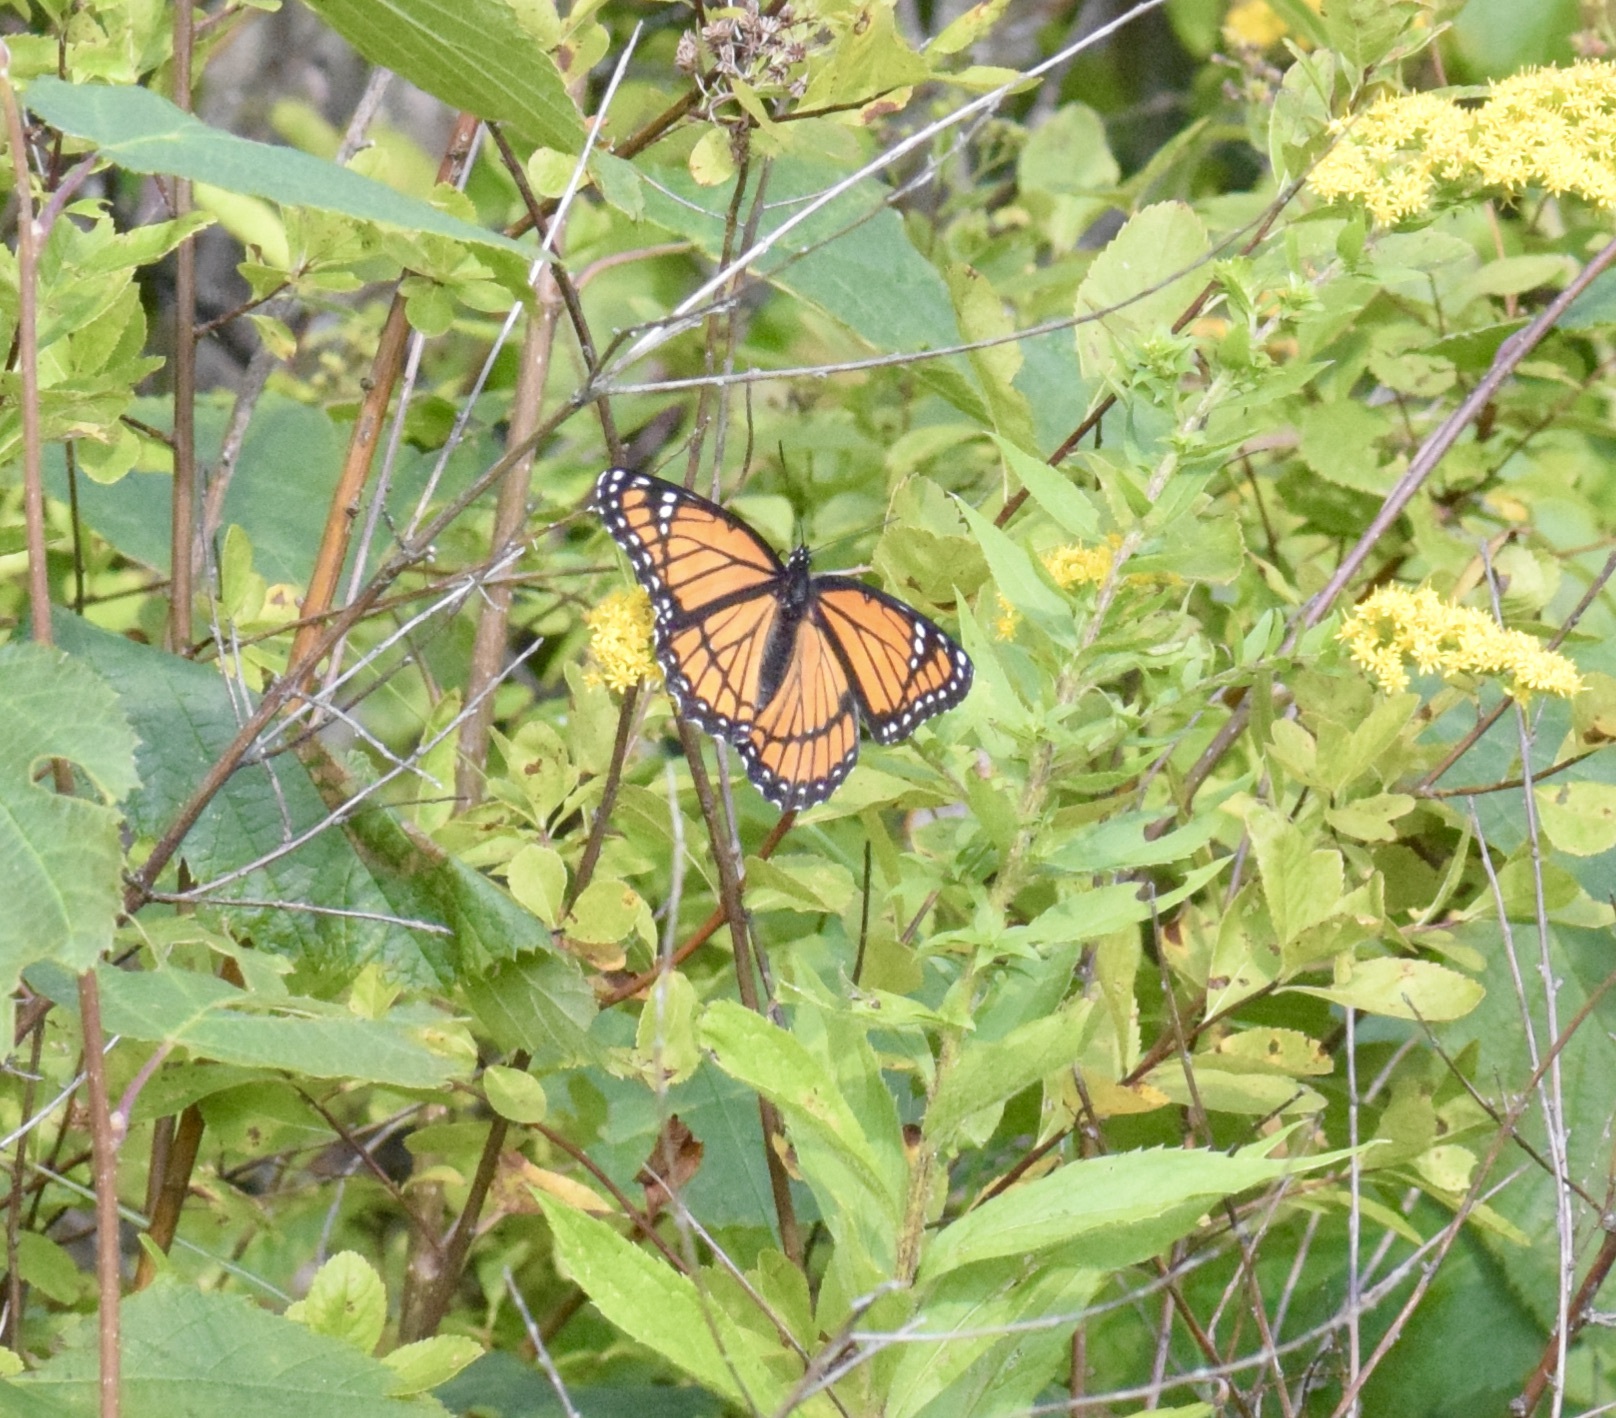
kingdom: Animalia
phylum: Arthropoda
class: Insecta
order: Lepidoptera
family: Nymphalidae
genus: Limenitis
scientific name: Limenitis archippus
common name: Viceroy
